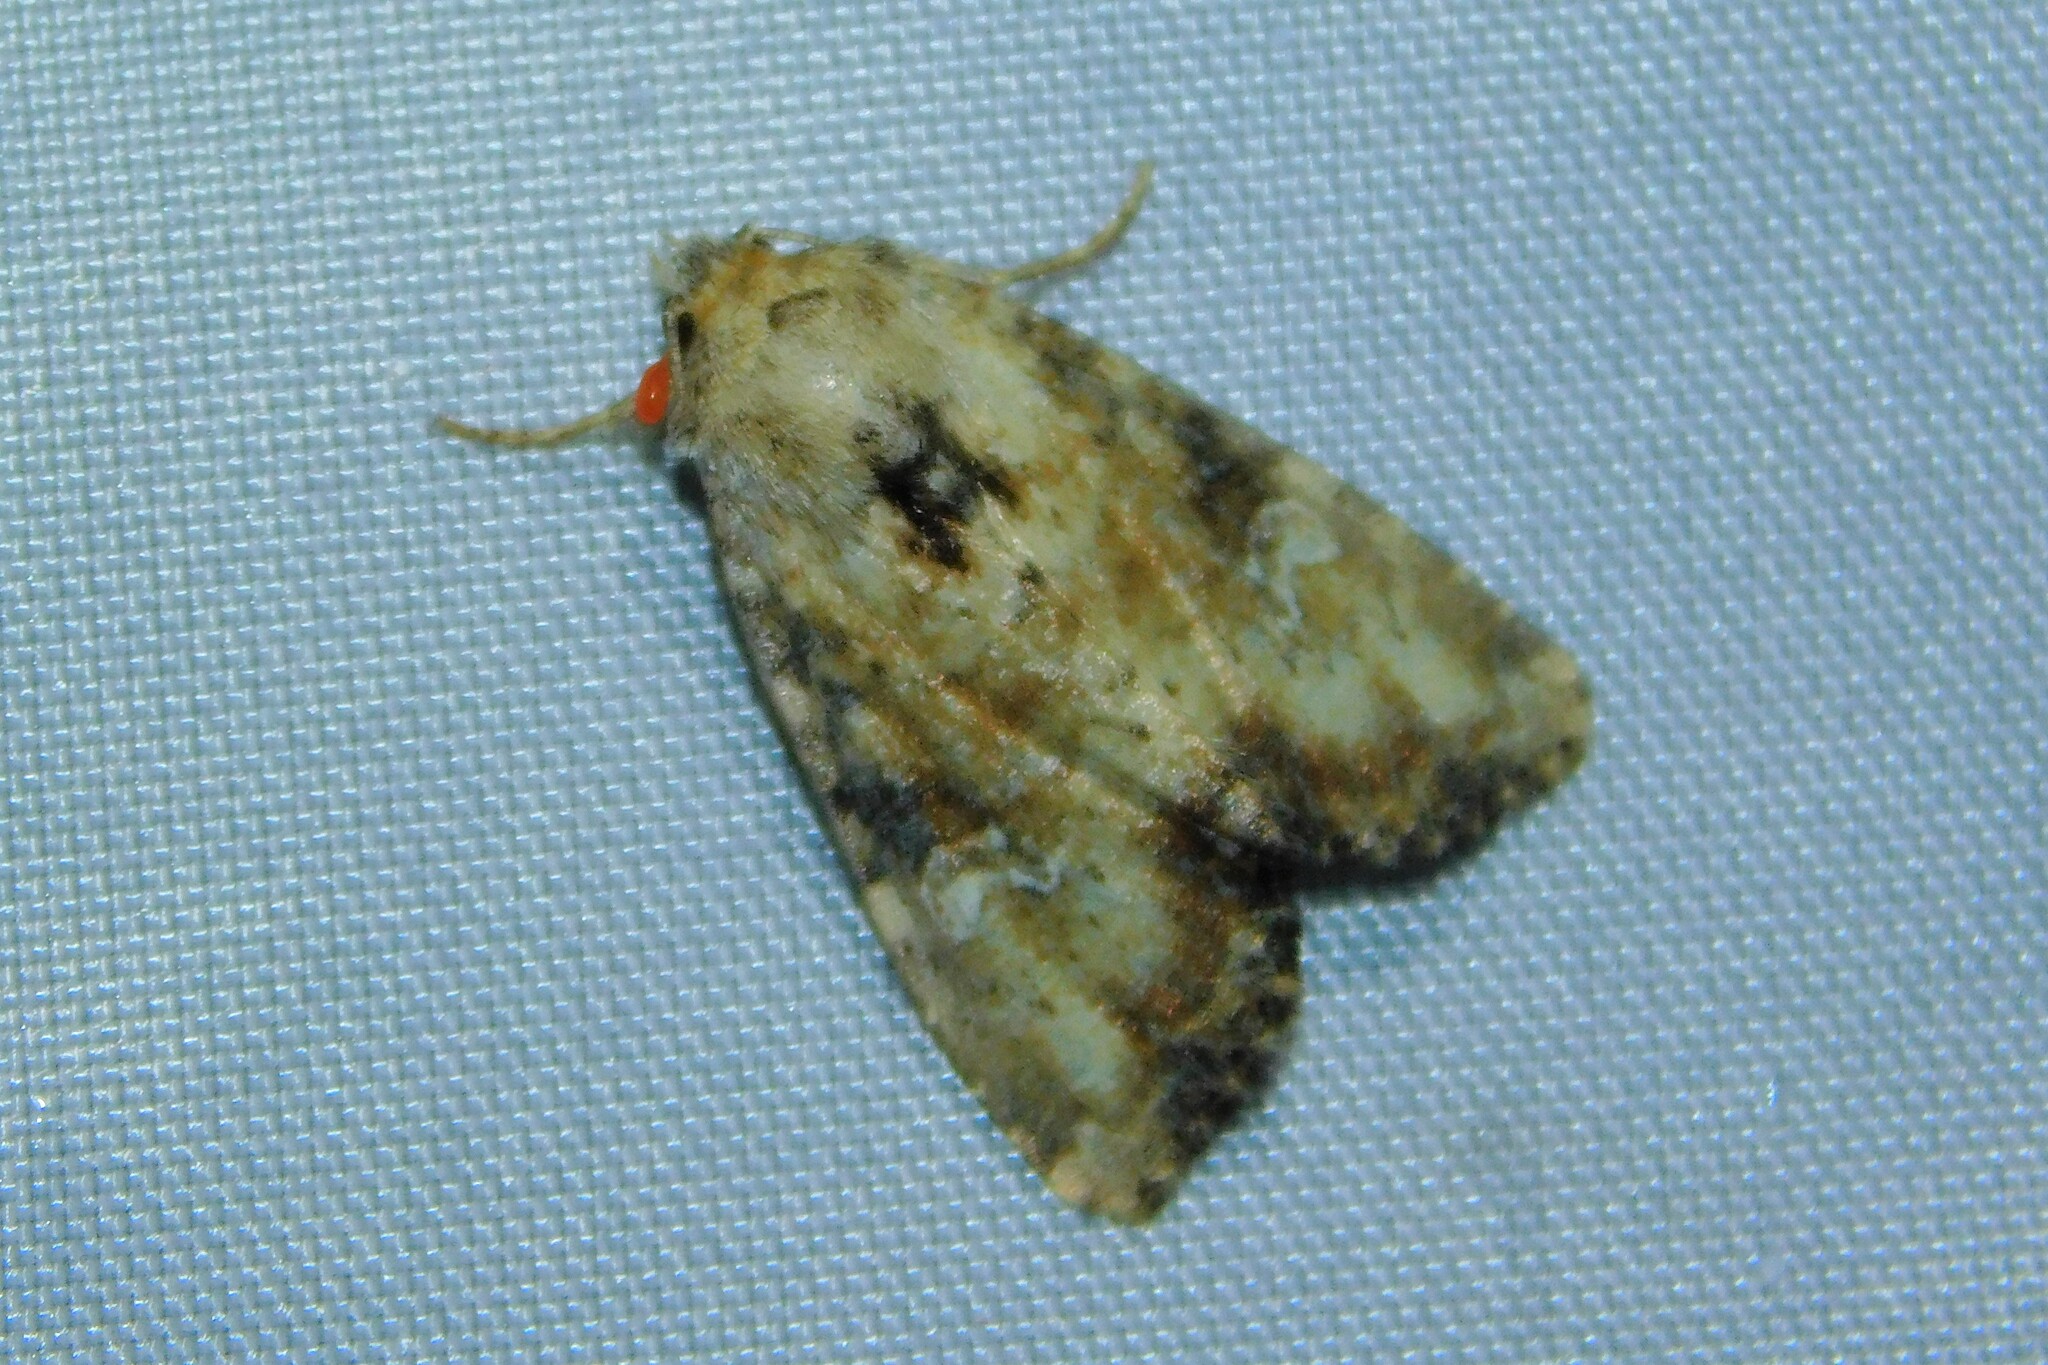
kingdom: Animalia
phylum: Arthropoda
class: Insecta
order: Lepidoptera
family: Noctuidae
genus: Loscopia
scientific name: Loscopia scolopacina
